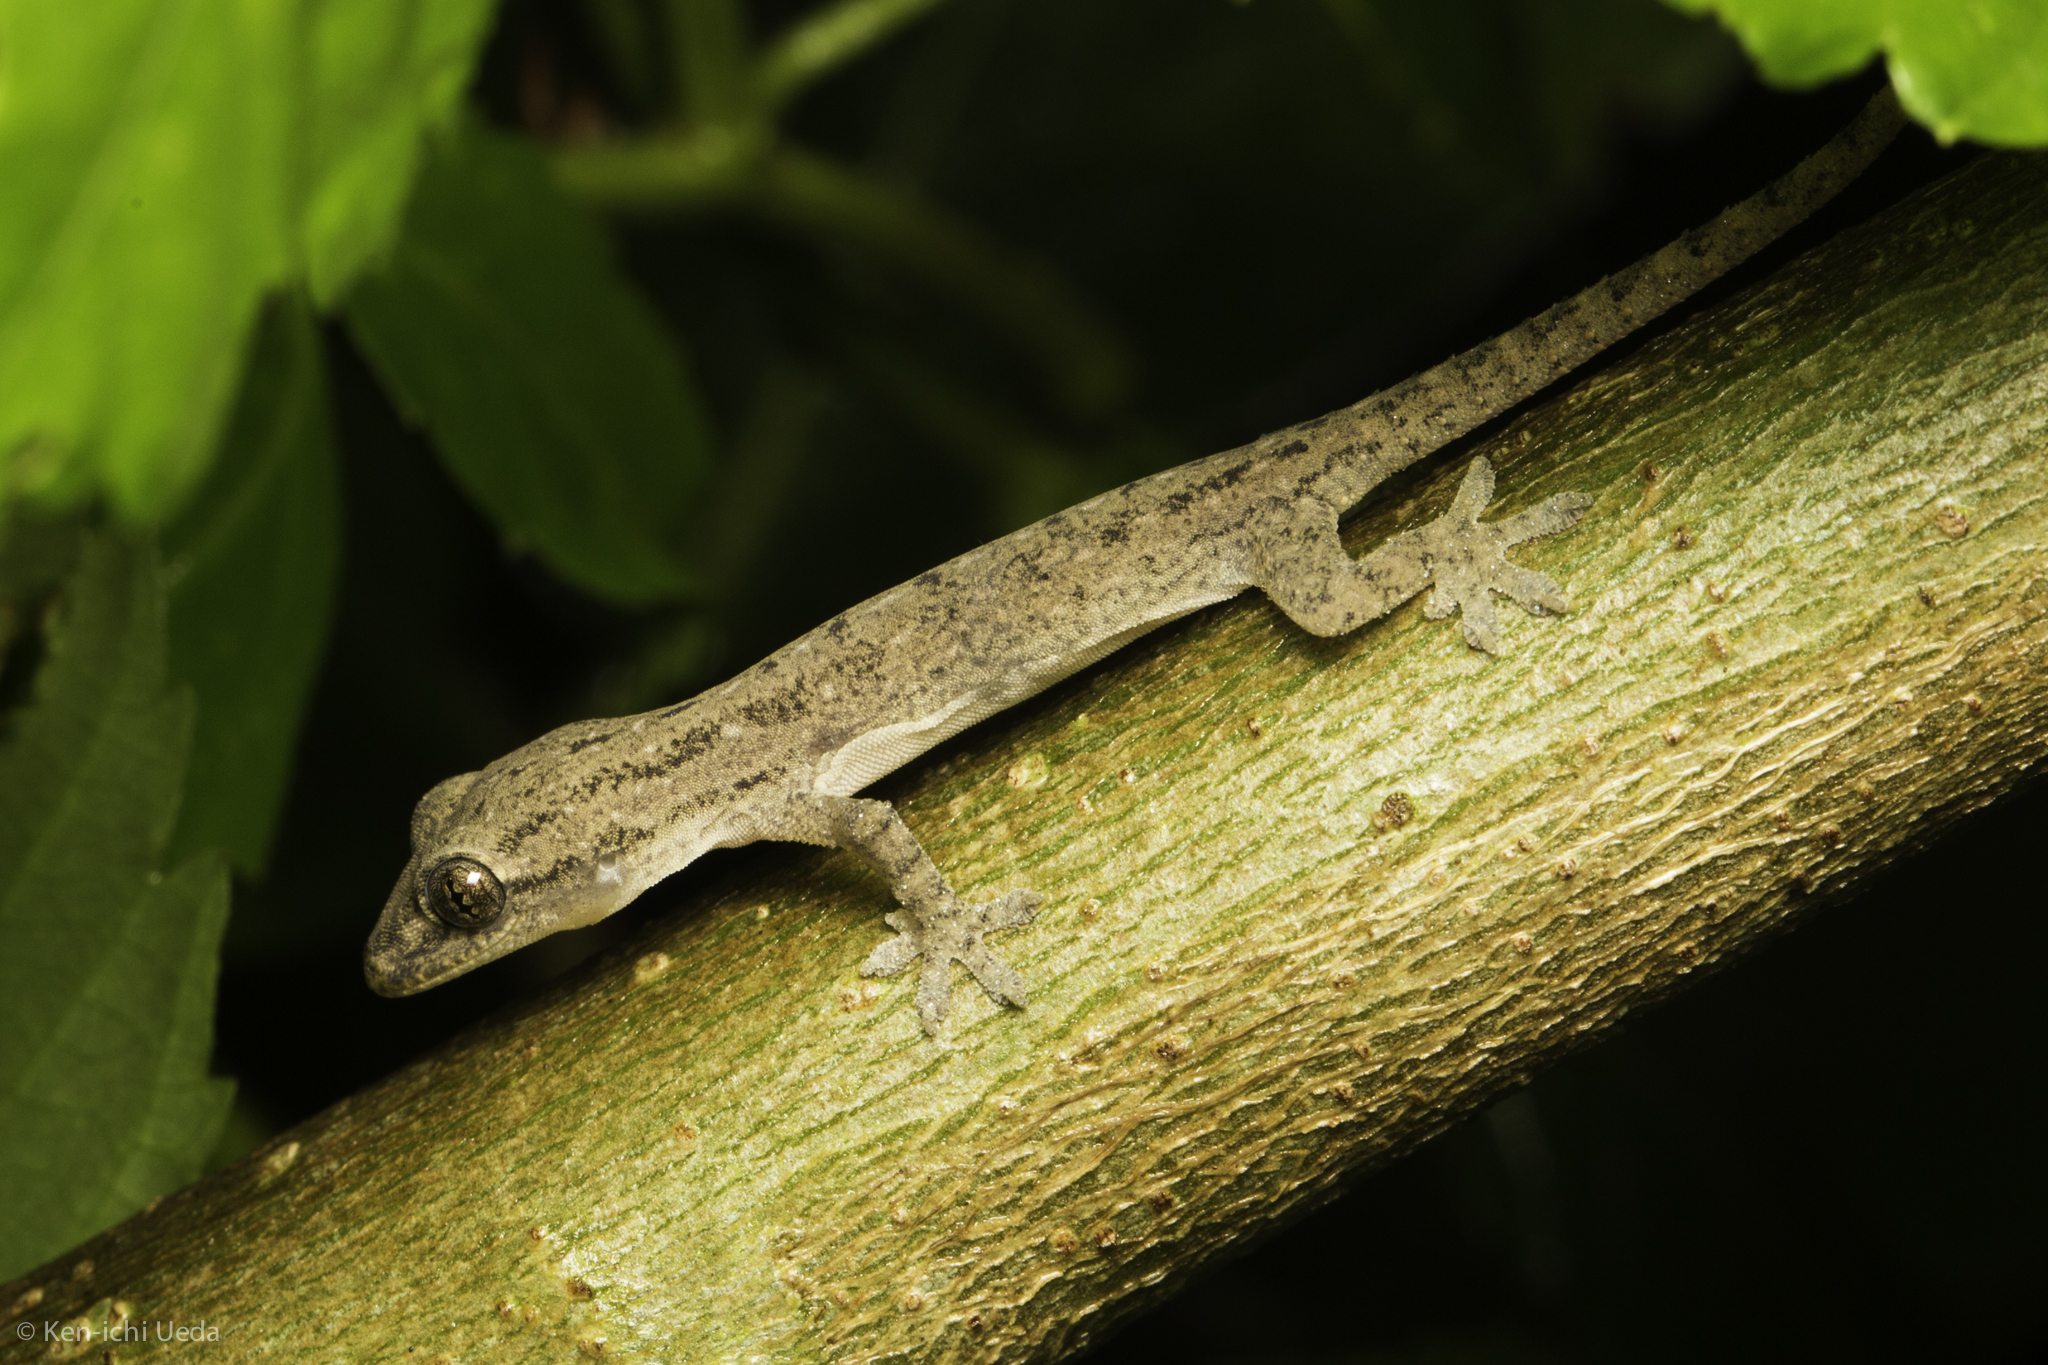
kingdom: Animalia
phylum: Chordata
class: Squamata
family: Gekkonidae
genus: Hemidactylus
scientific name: Hemidactylus frenatus
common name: Common house gecko
